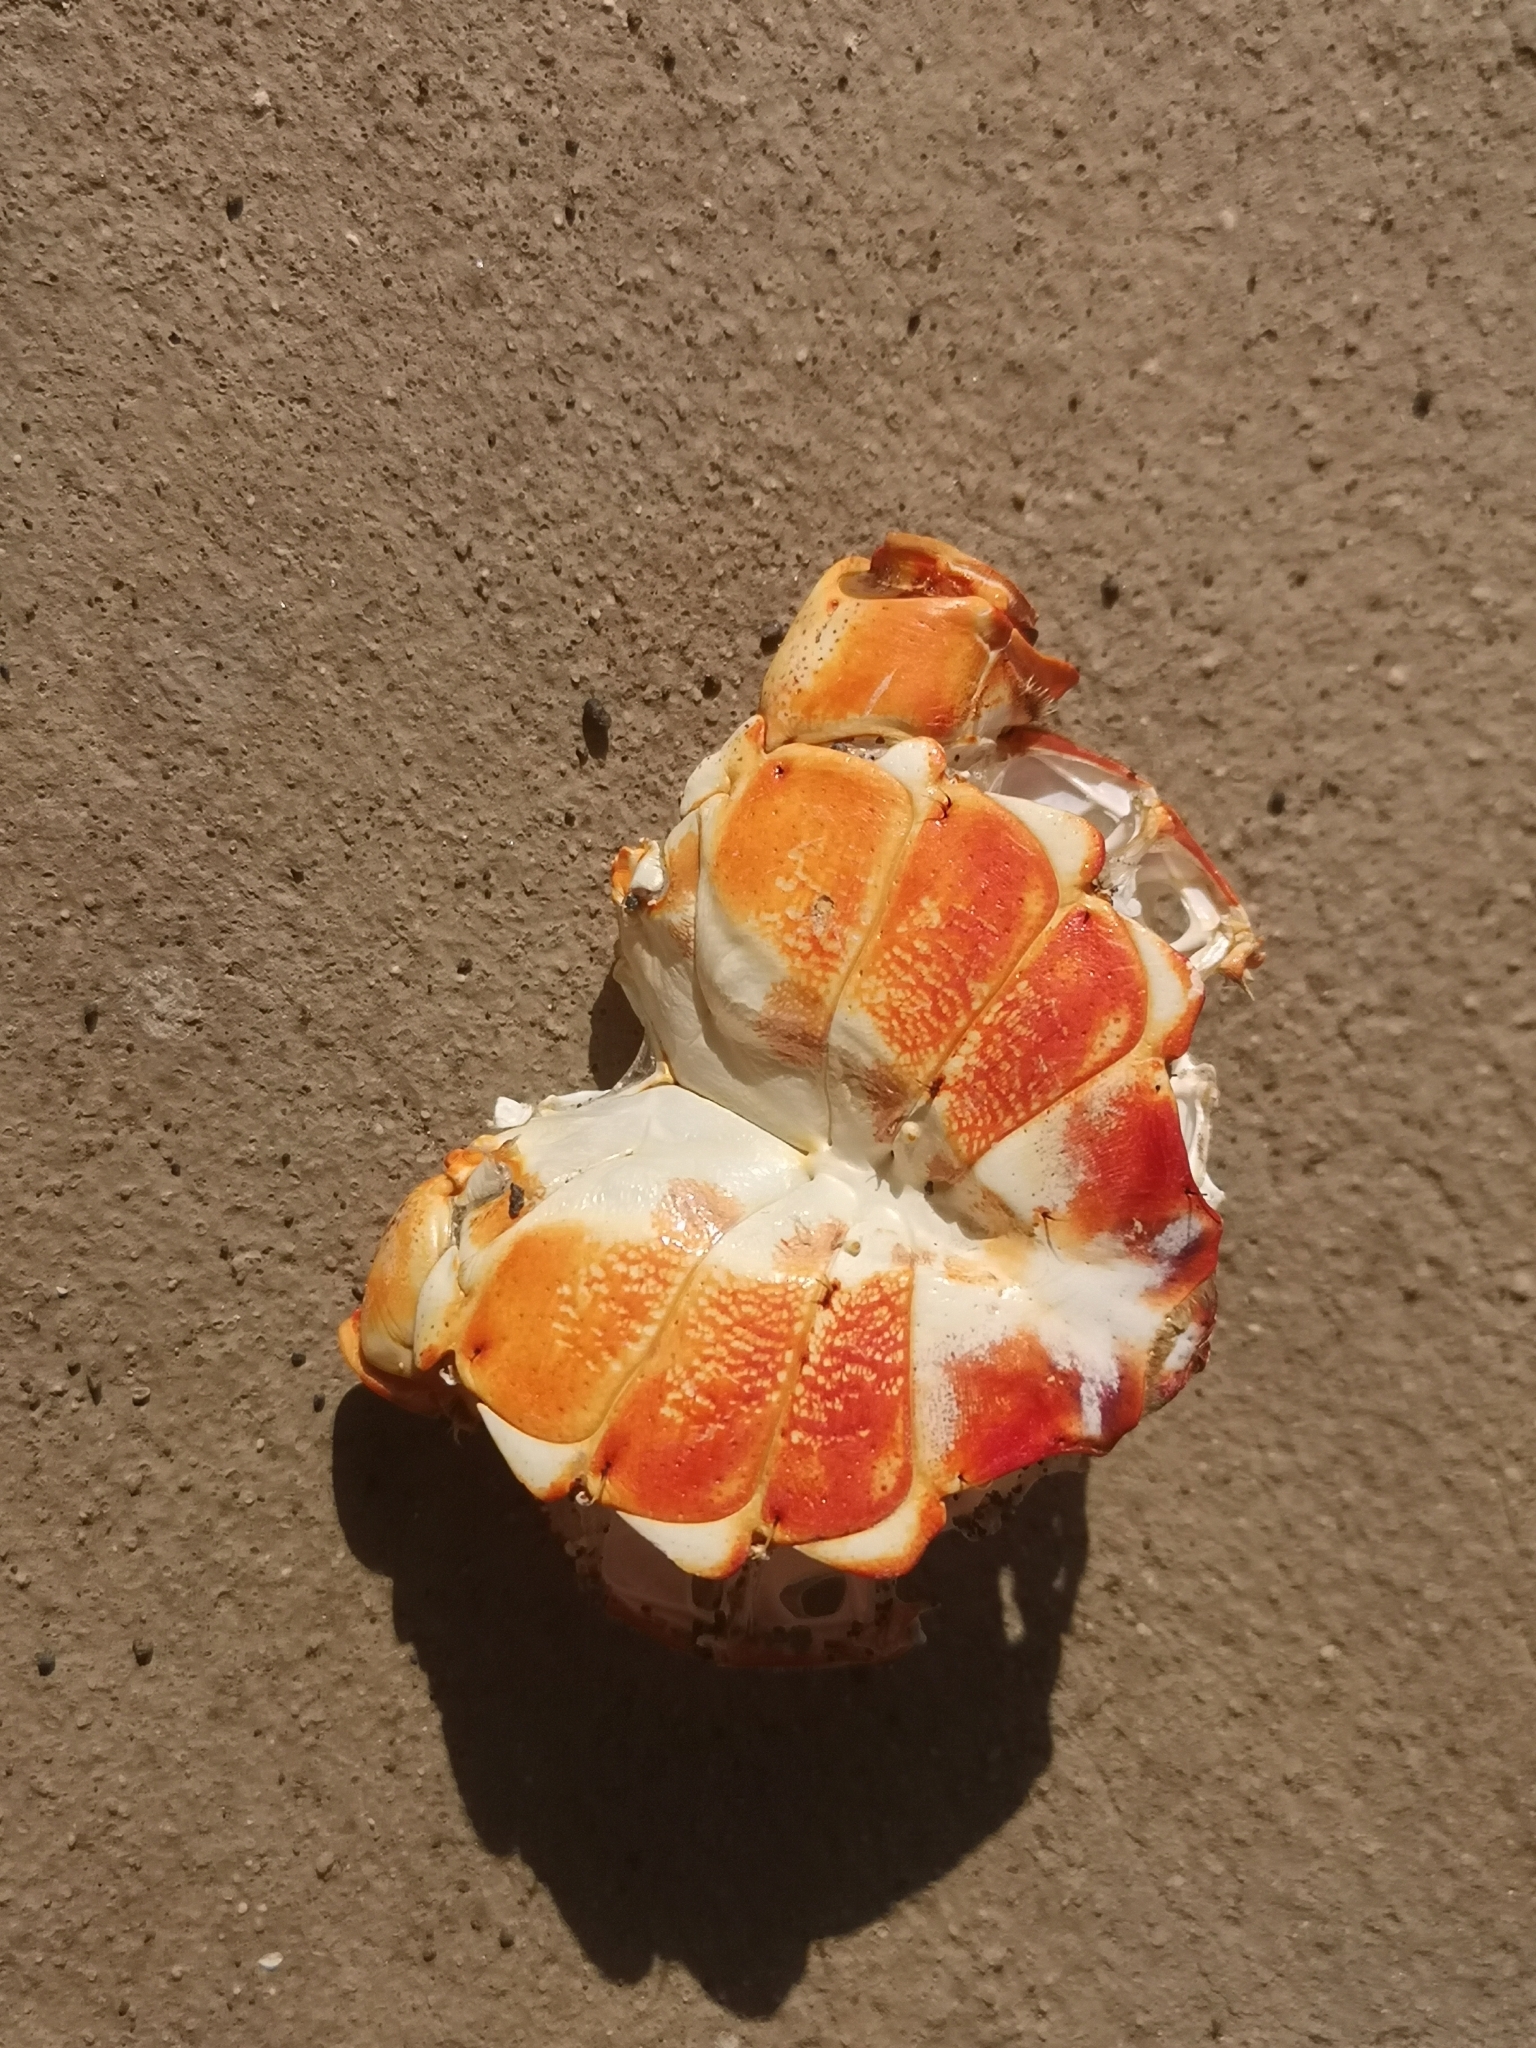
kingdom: Animalia
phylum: Arthropoda
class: Malacostraca
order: Decapoda
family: Grapsidae
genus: Grapsus
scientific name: Grapsus adscensionis
